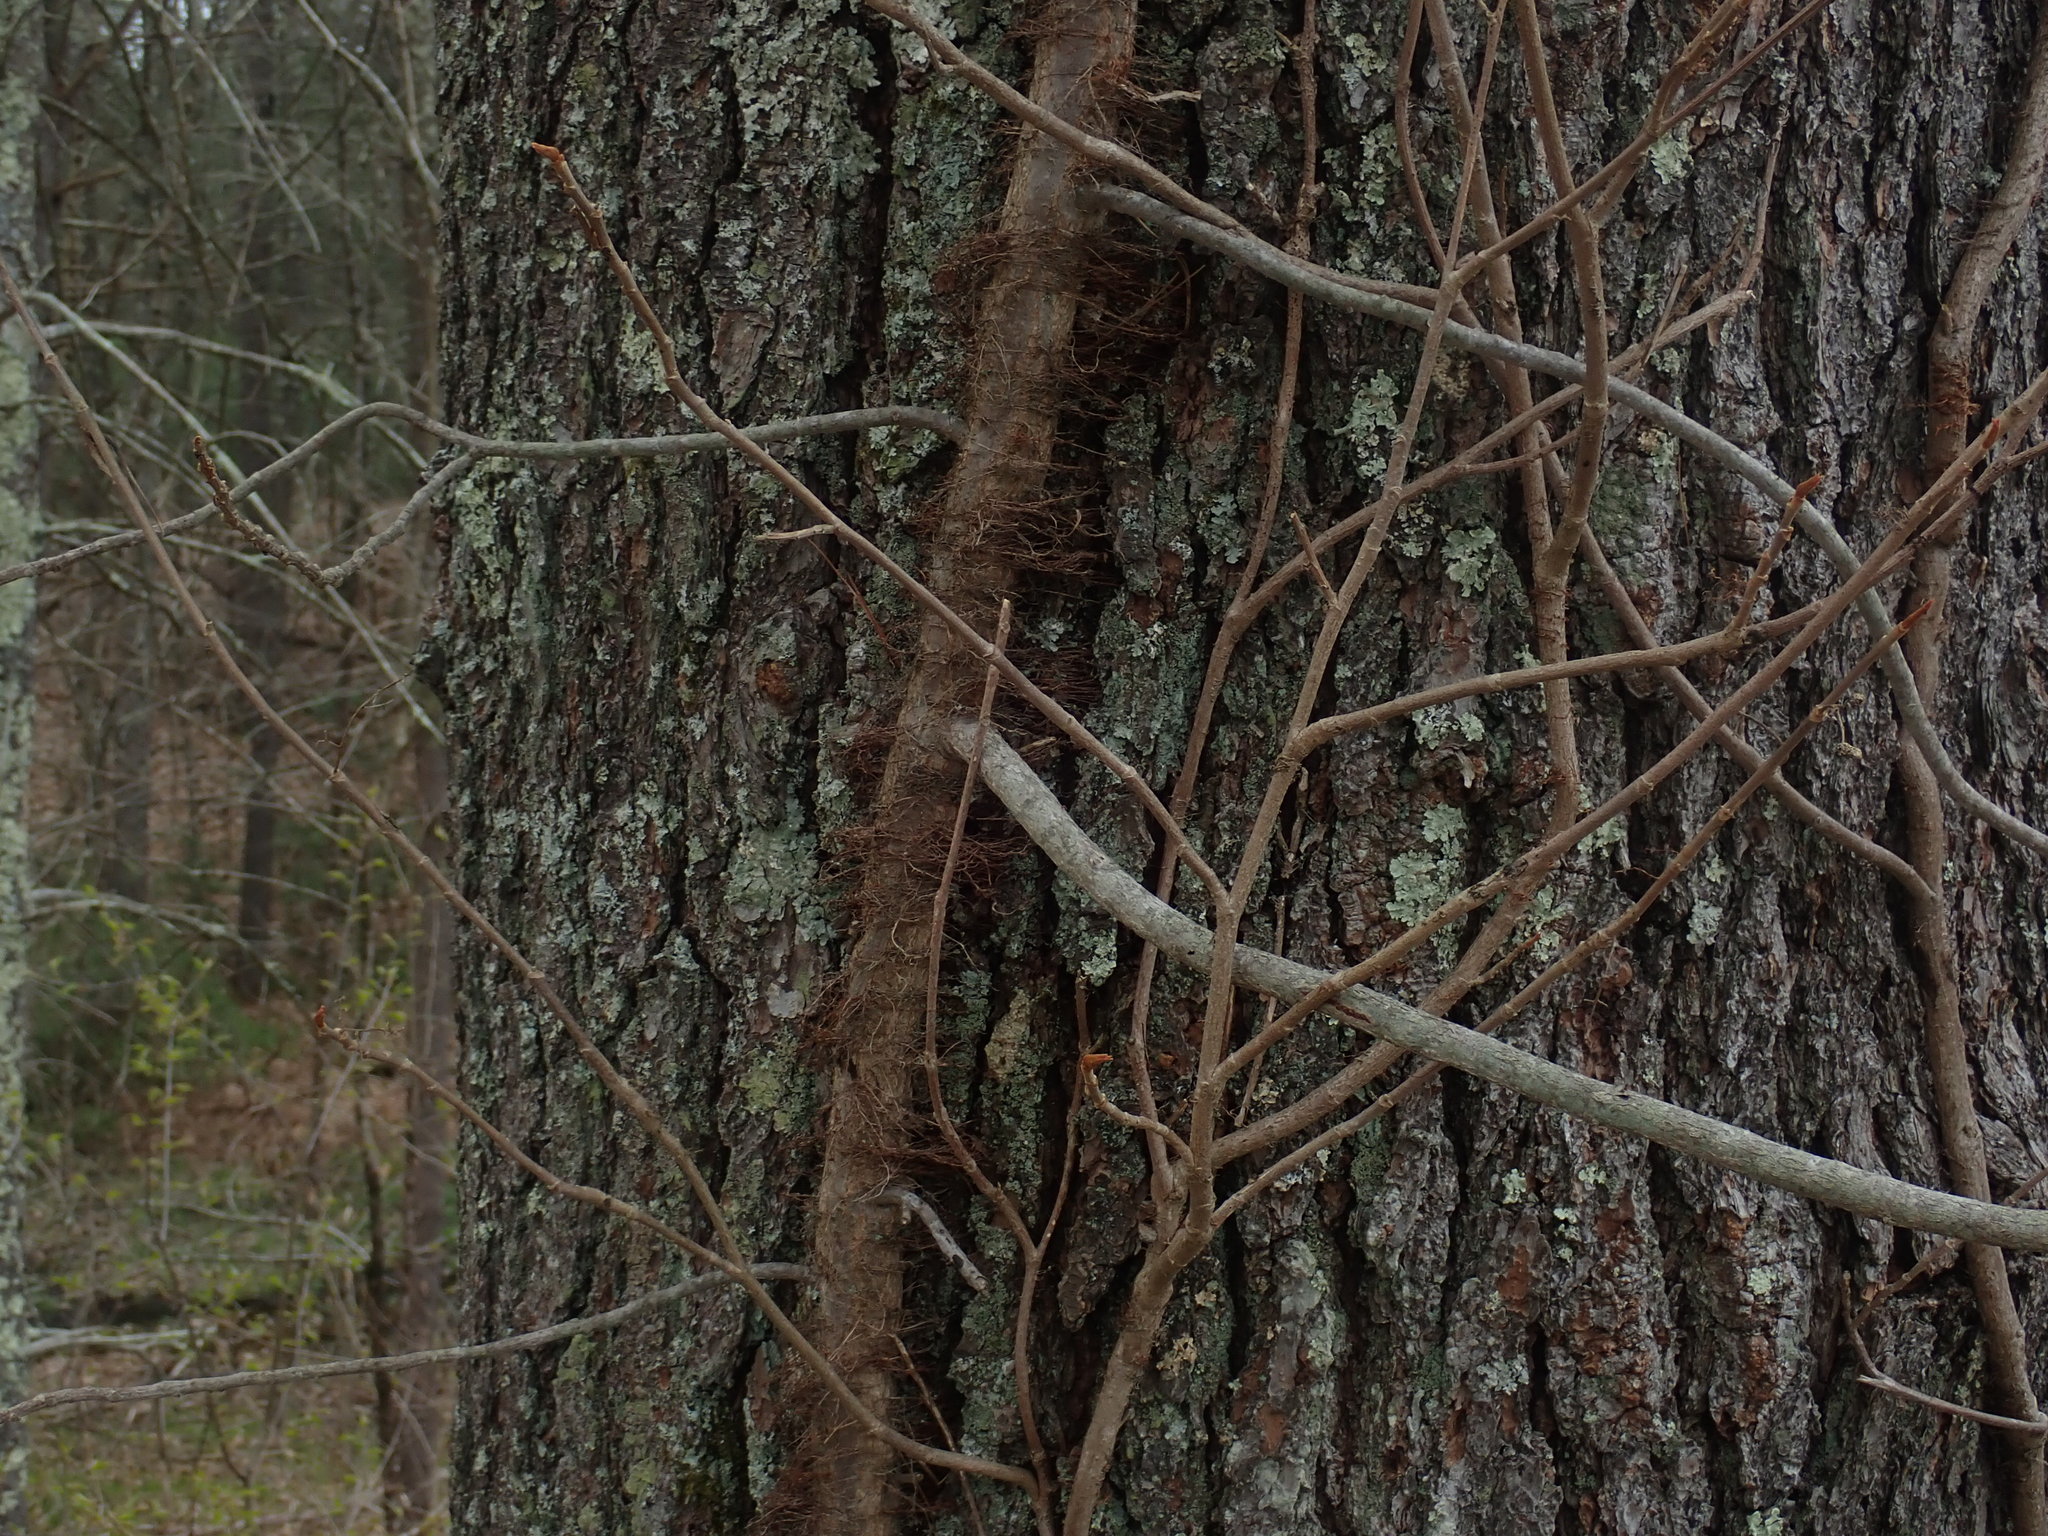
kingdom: Plantae
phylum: Tracheophyta
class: Magnoliopsida
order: Sapindales
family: Anacardiaceae
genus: Toxicodendron
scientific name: Toxicodendron radicans
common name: Poison ivy
